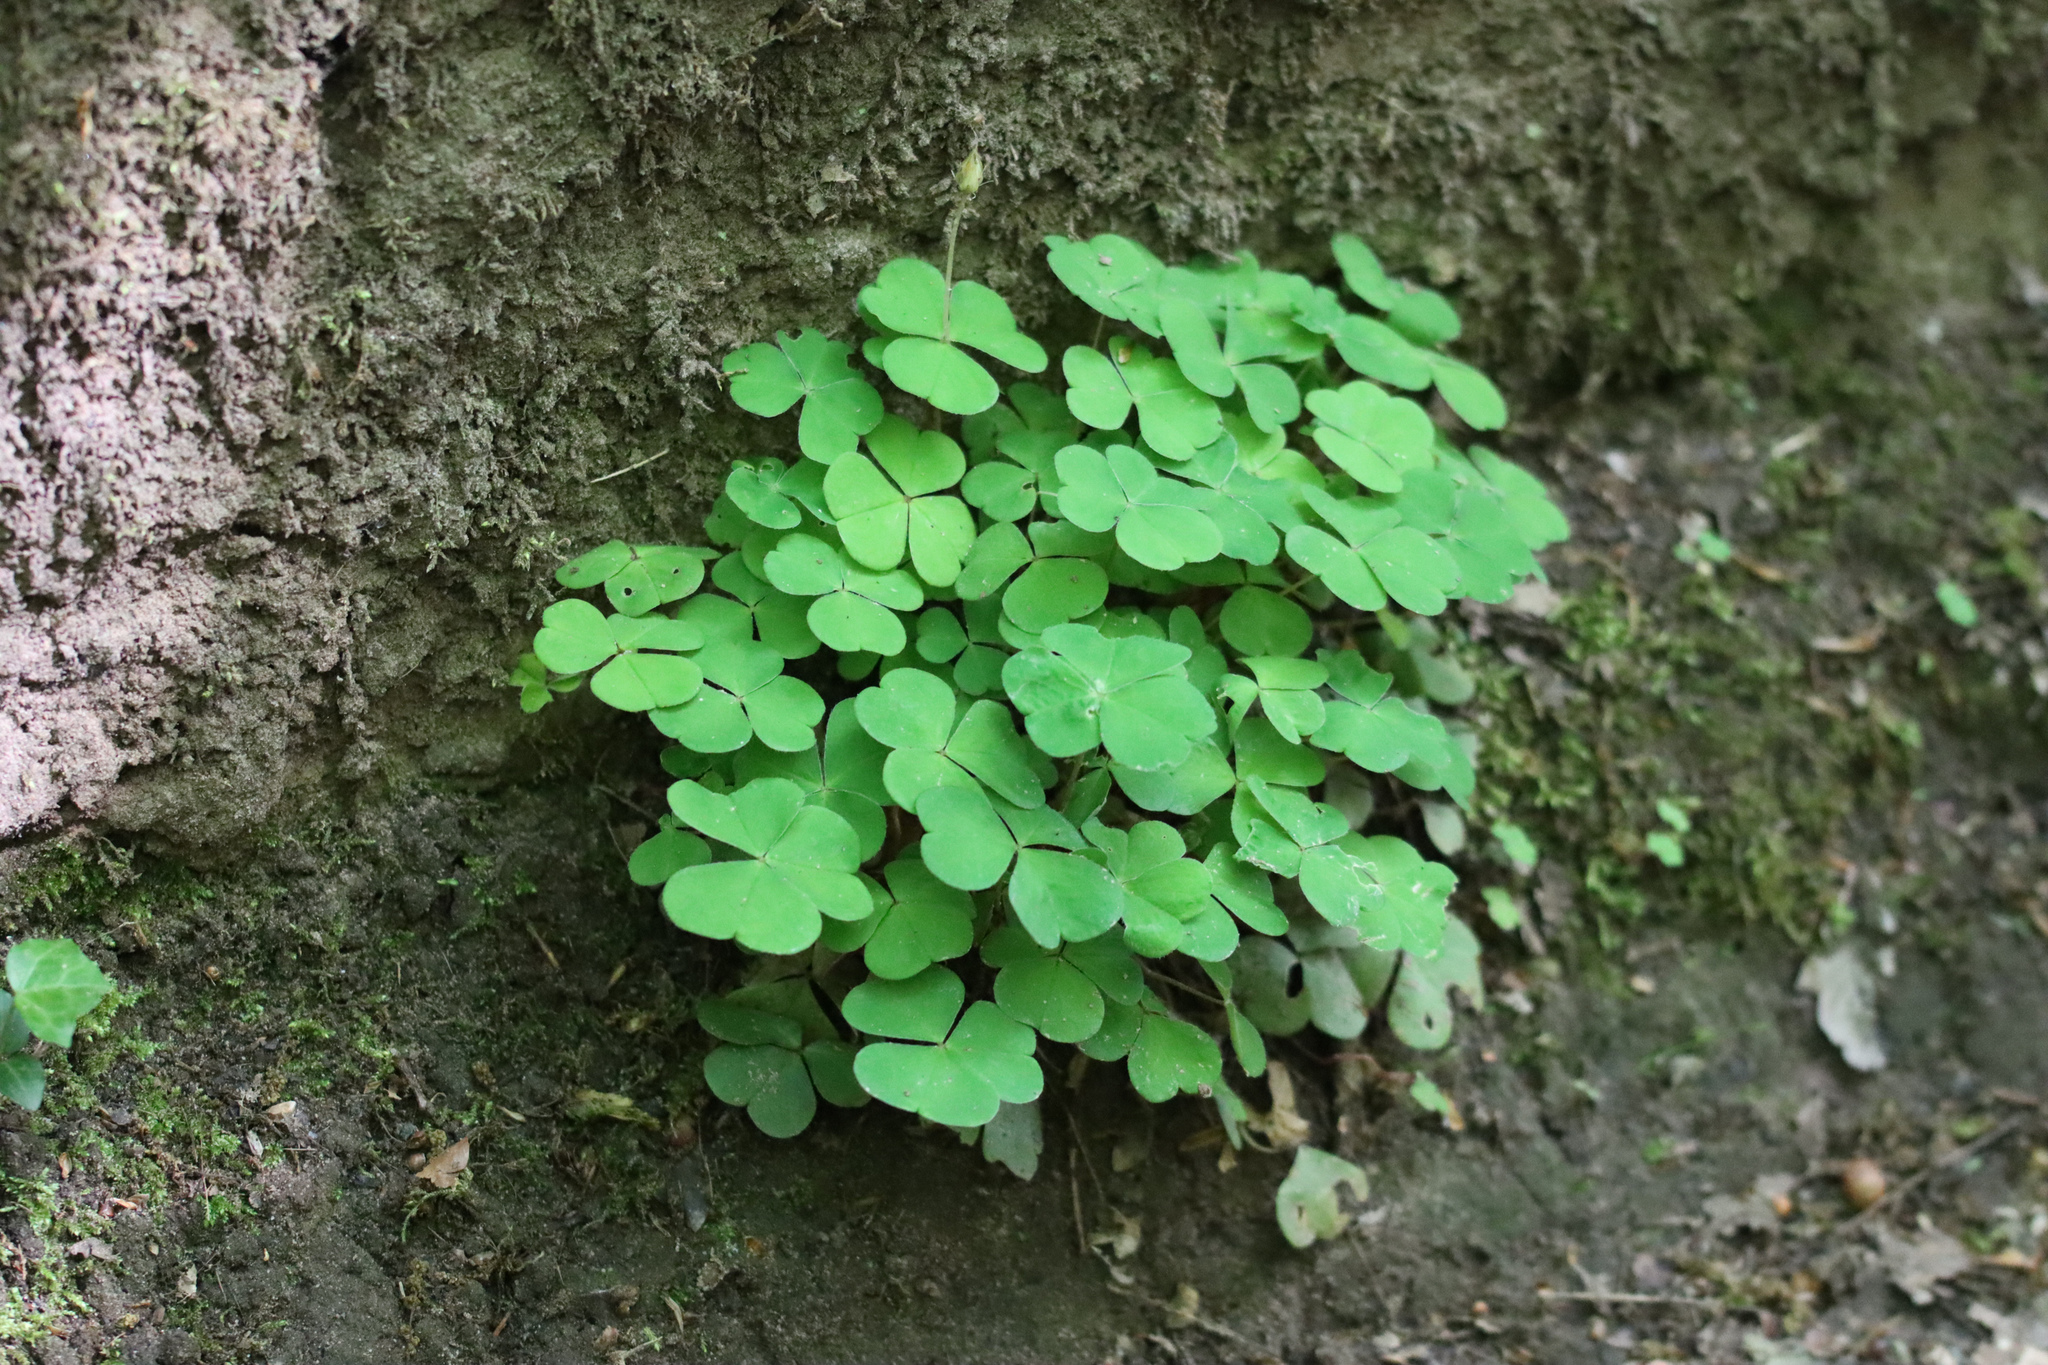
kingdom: Plantae
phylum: Tracheophyta
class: Magnoliopsida
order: Oxalidales
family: Oxalidaceae
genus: Oxalis
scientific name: Oxalis acetosella
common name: Wood-sorrel
